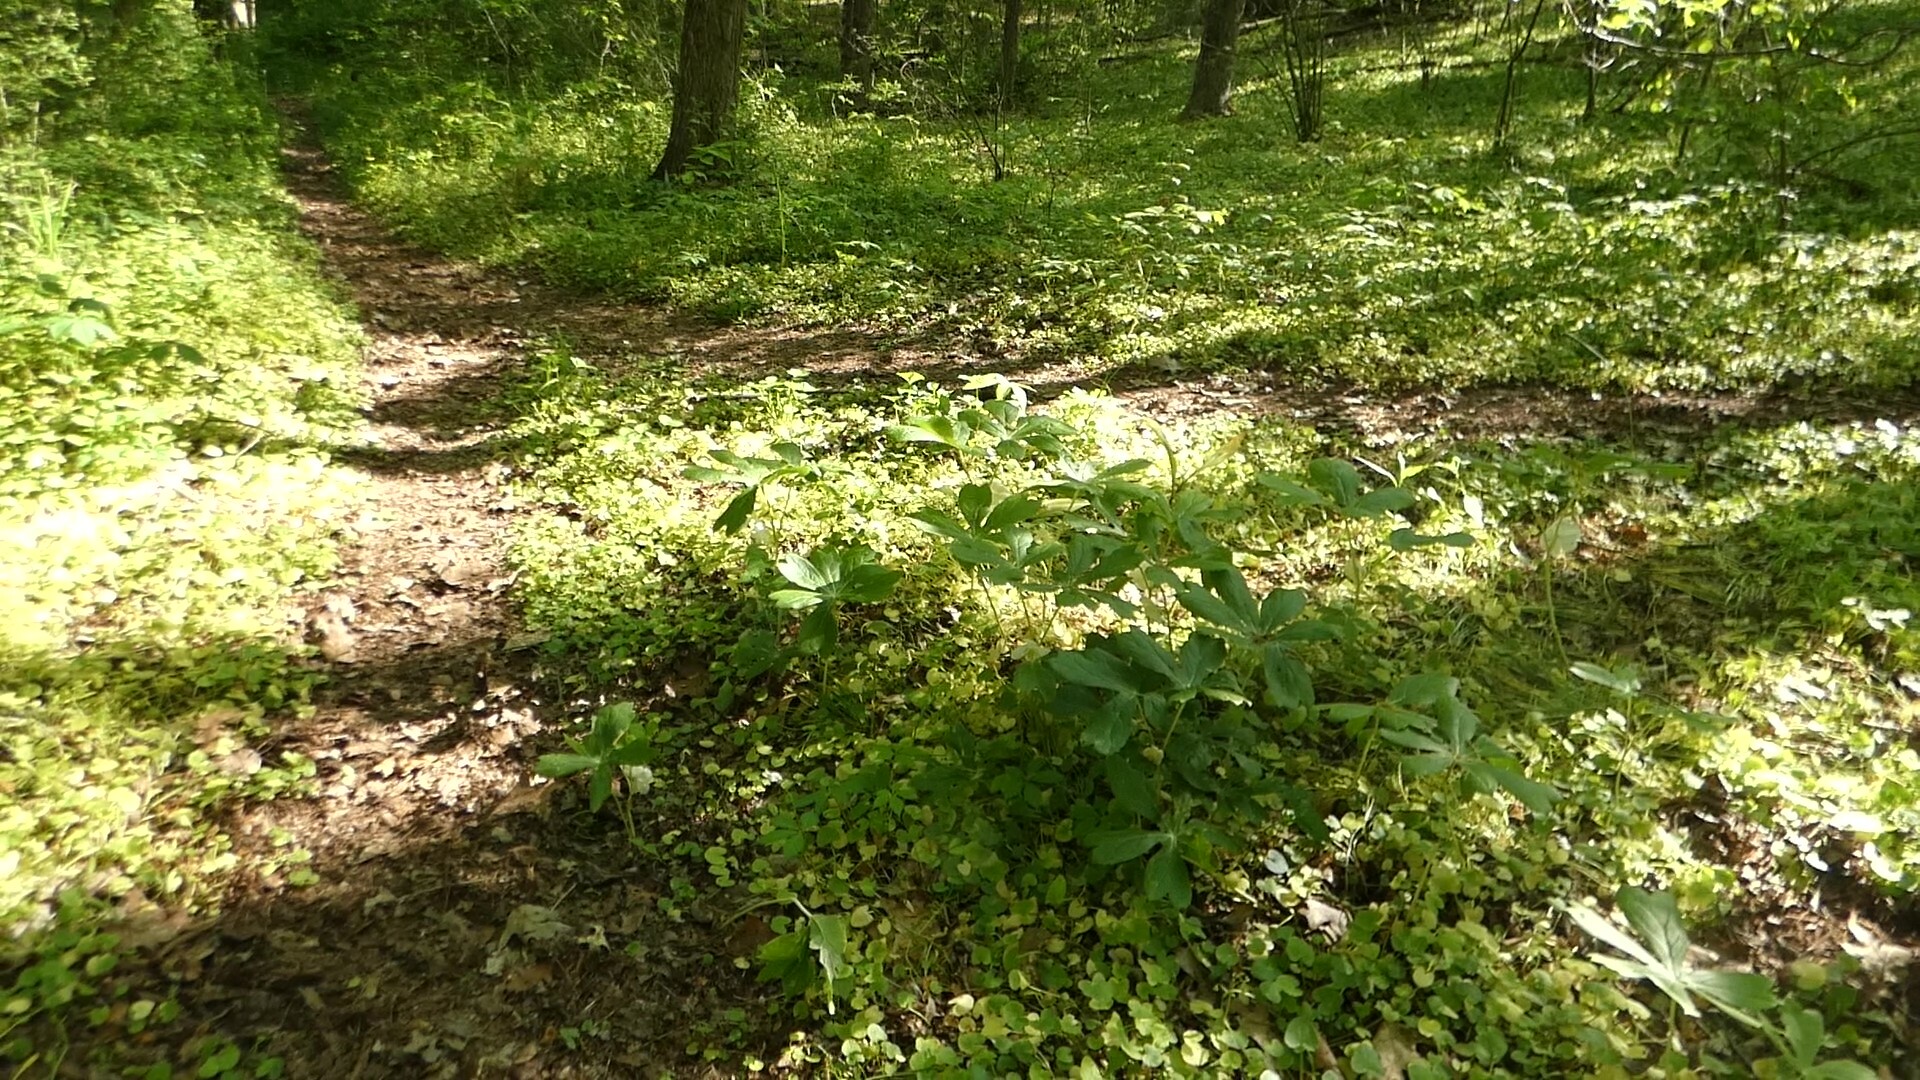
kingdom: Plantae
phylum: Tracheophyta
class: Magnoliopsida
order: Ranunculales
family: Berberidaceae
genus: Podophyllum
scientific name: Podophyllum peltatum
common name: Wild mandrake
